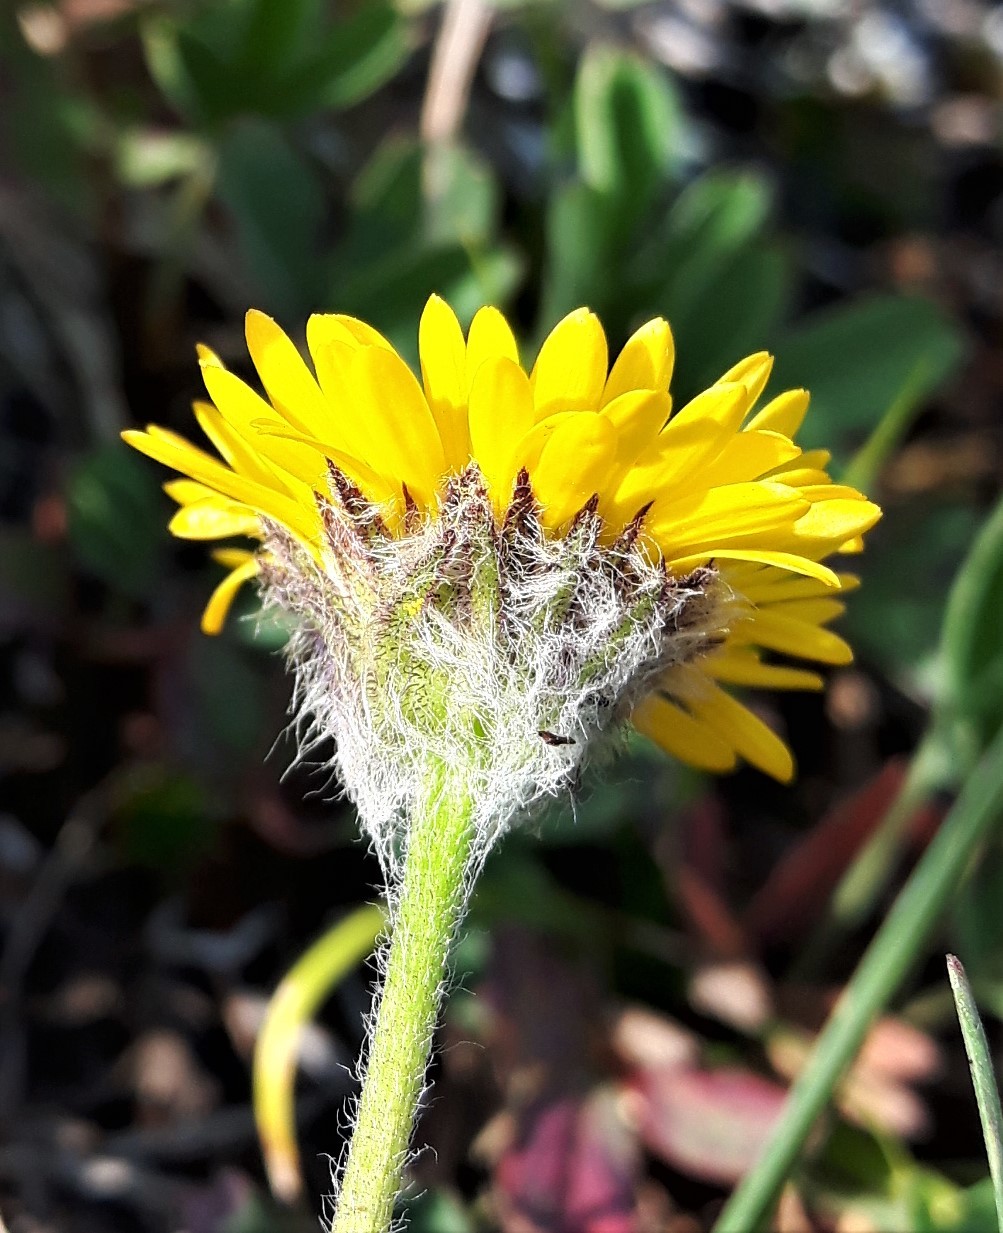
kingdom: Plantae
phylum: Tracheophyta
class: Magnoliopsida
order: Asterales
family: Asteraceae
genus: Erigeron
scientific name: Erigeron aureus
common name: Alpine yellow fleabane
